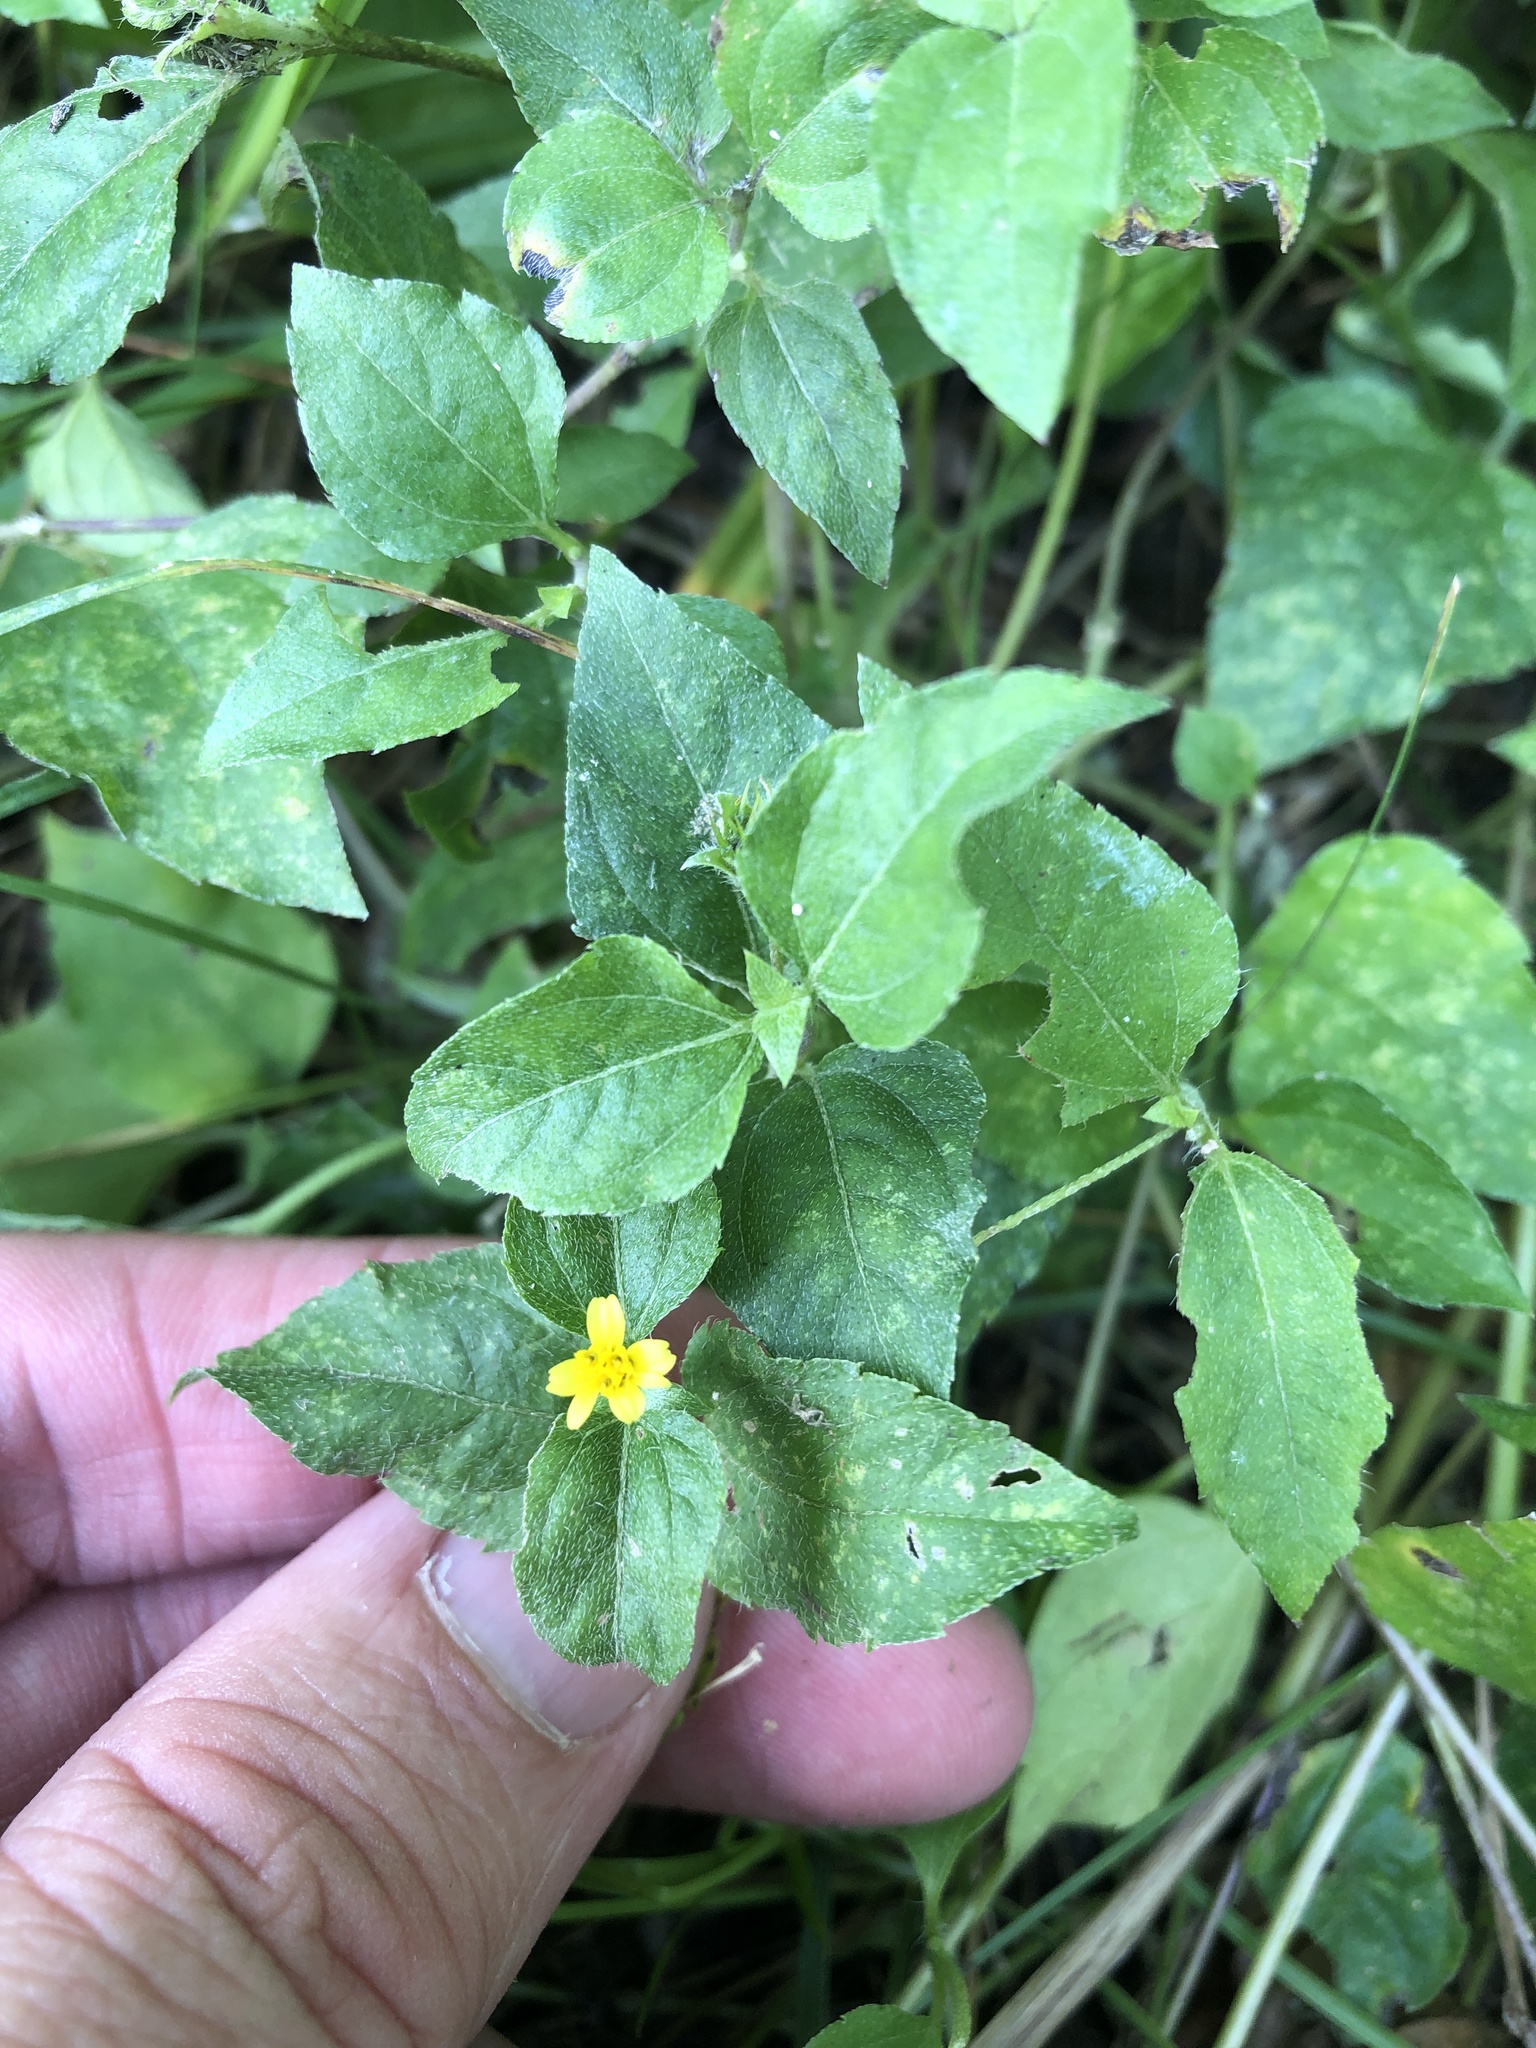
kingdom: Plantae
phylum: Tracheophyta
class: Magnoliopsida
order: Asterales
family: Asteraceae
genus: Calyptocarpus
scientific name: Calyptocarpus vialis
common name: Straggler daisy
